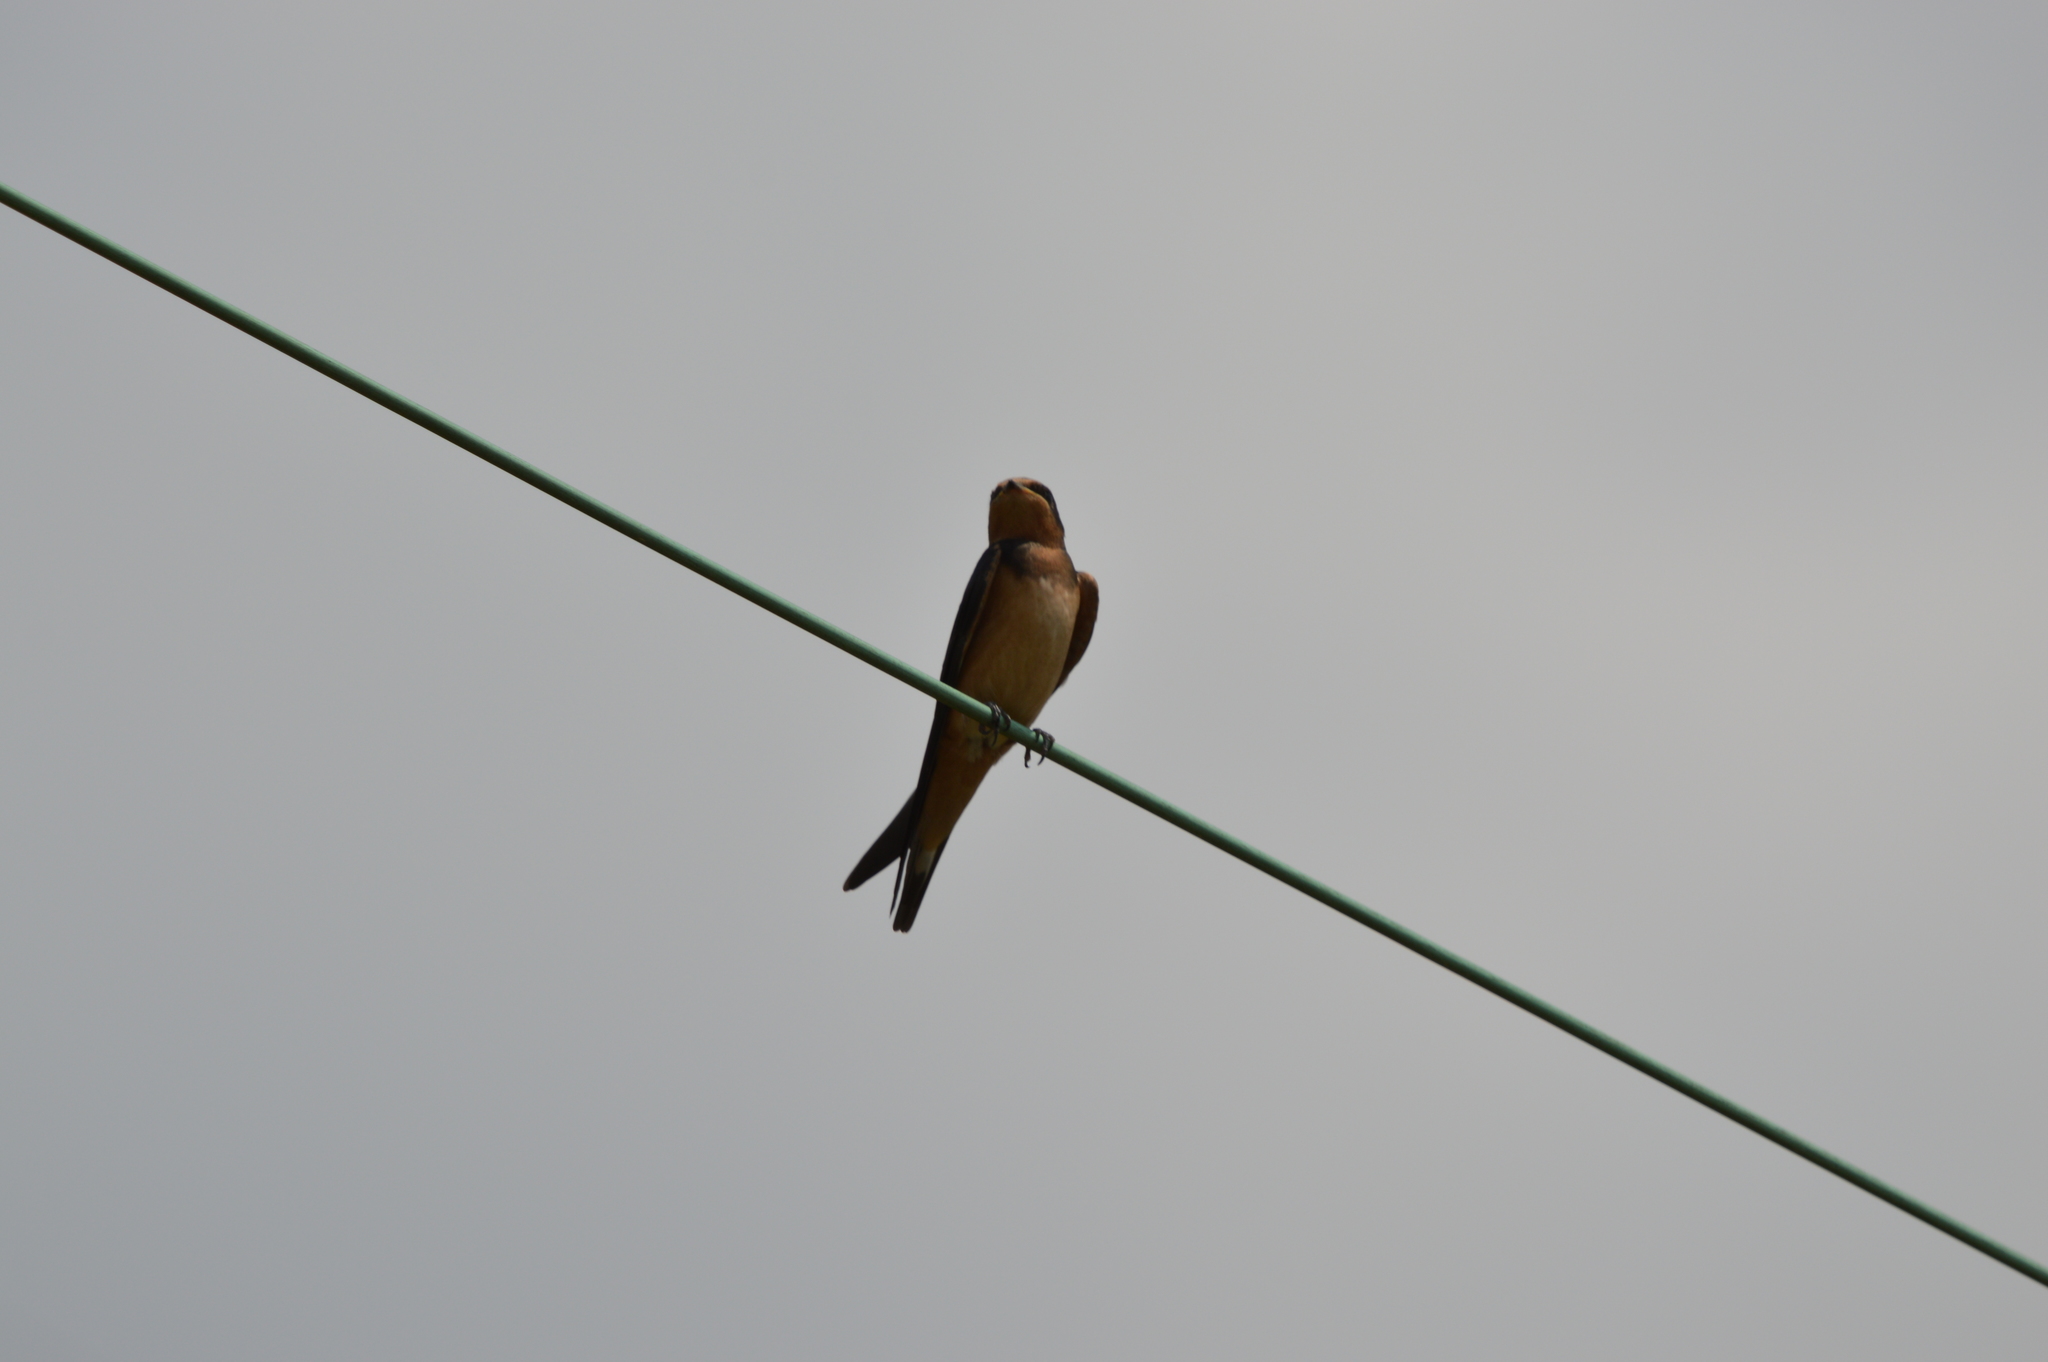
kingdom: Animalia
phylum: Chordata
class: Aves
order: Passeriformes
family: Hirundinidae
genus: Hirundo
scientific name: Hirundo rustica
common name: Barn swallow
